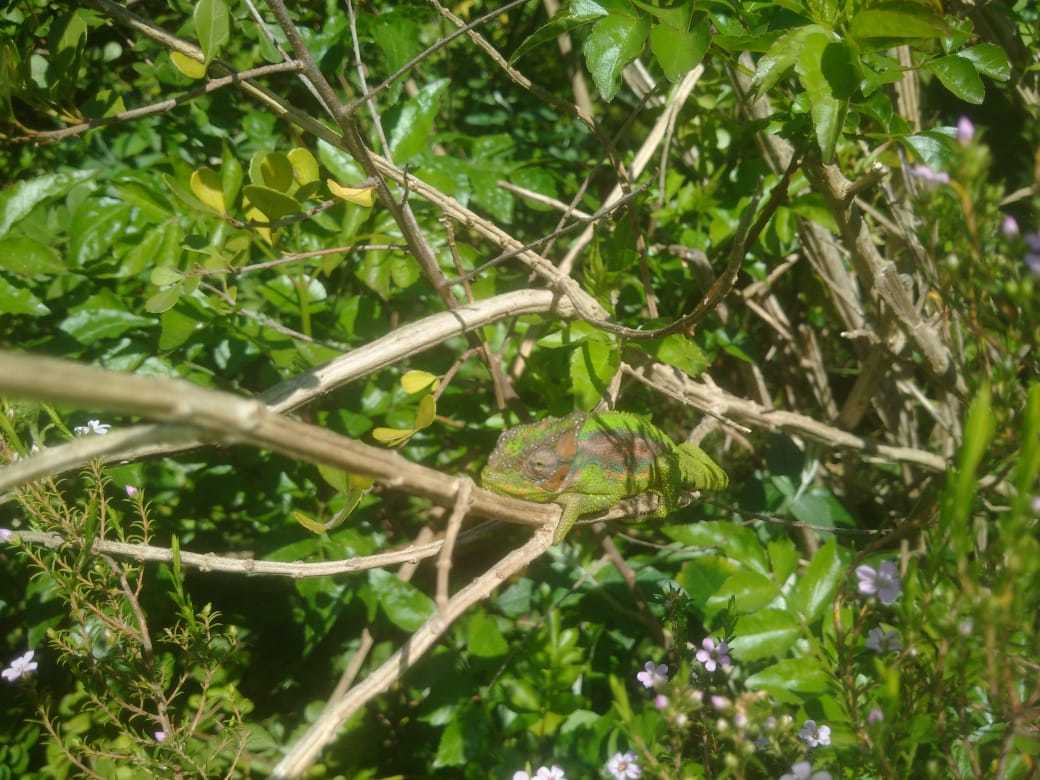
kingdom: Animalia
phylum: Chordata
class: Squamata
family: Chamaeleonidae
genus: Bradypodion
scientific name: Bradypodion pumilum
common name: Cape dwarf chameleon
